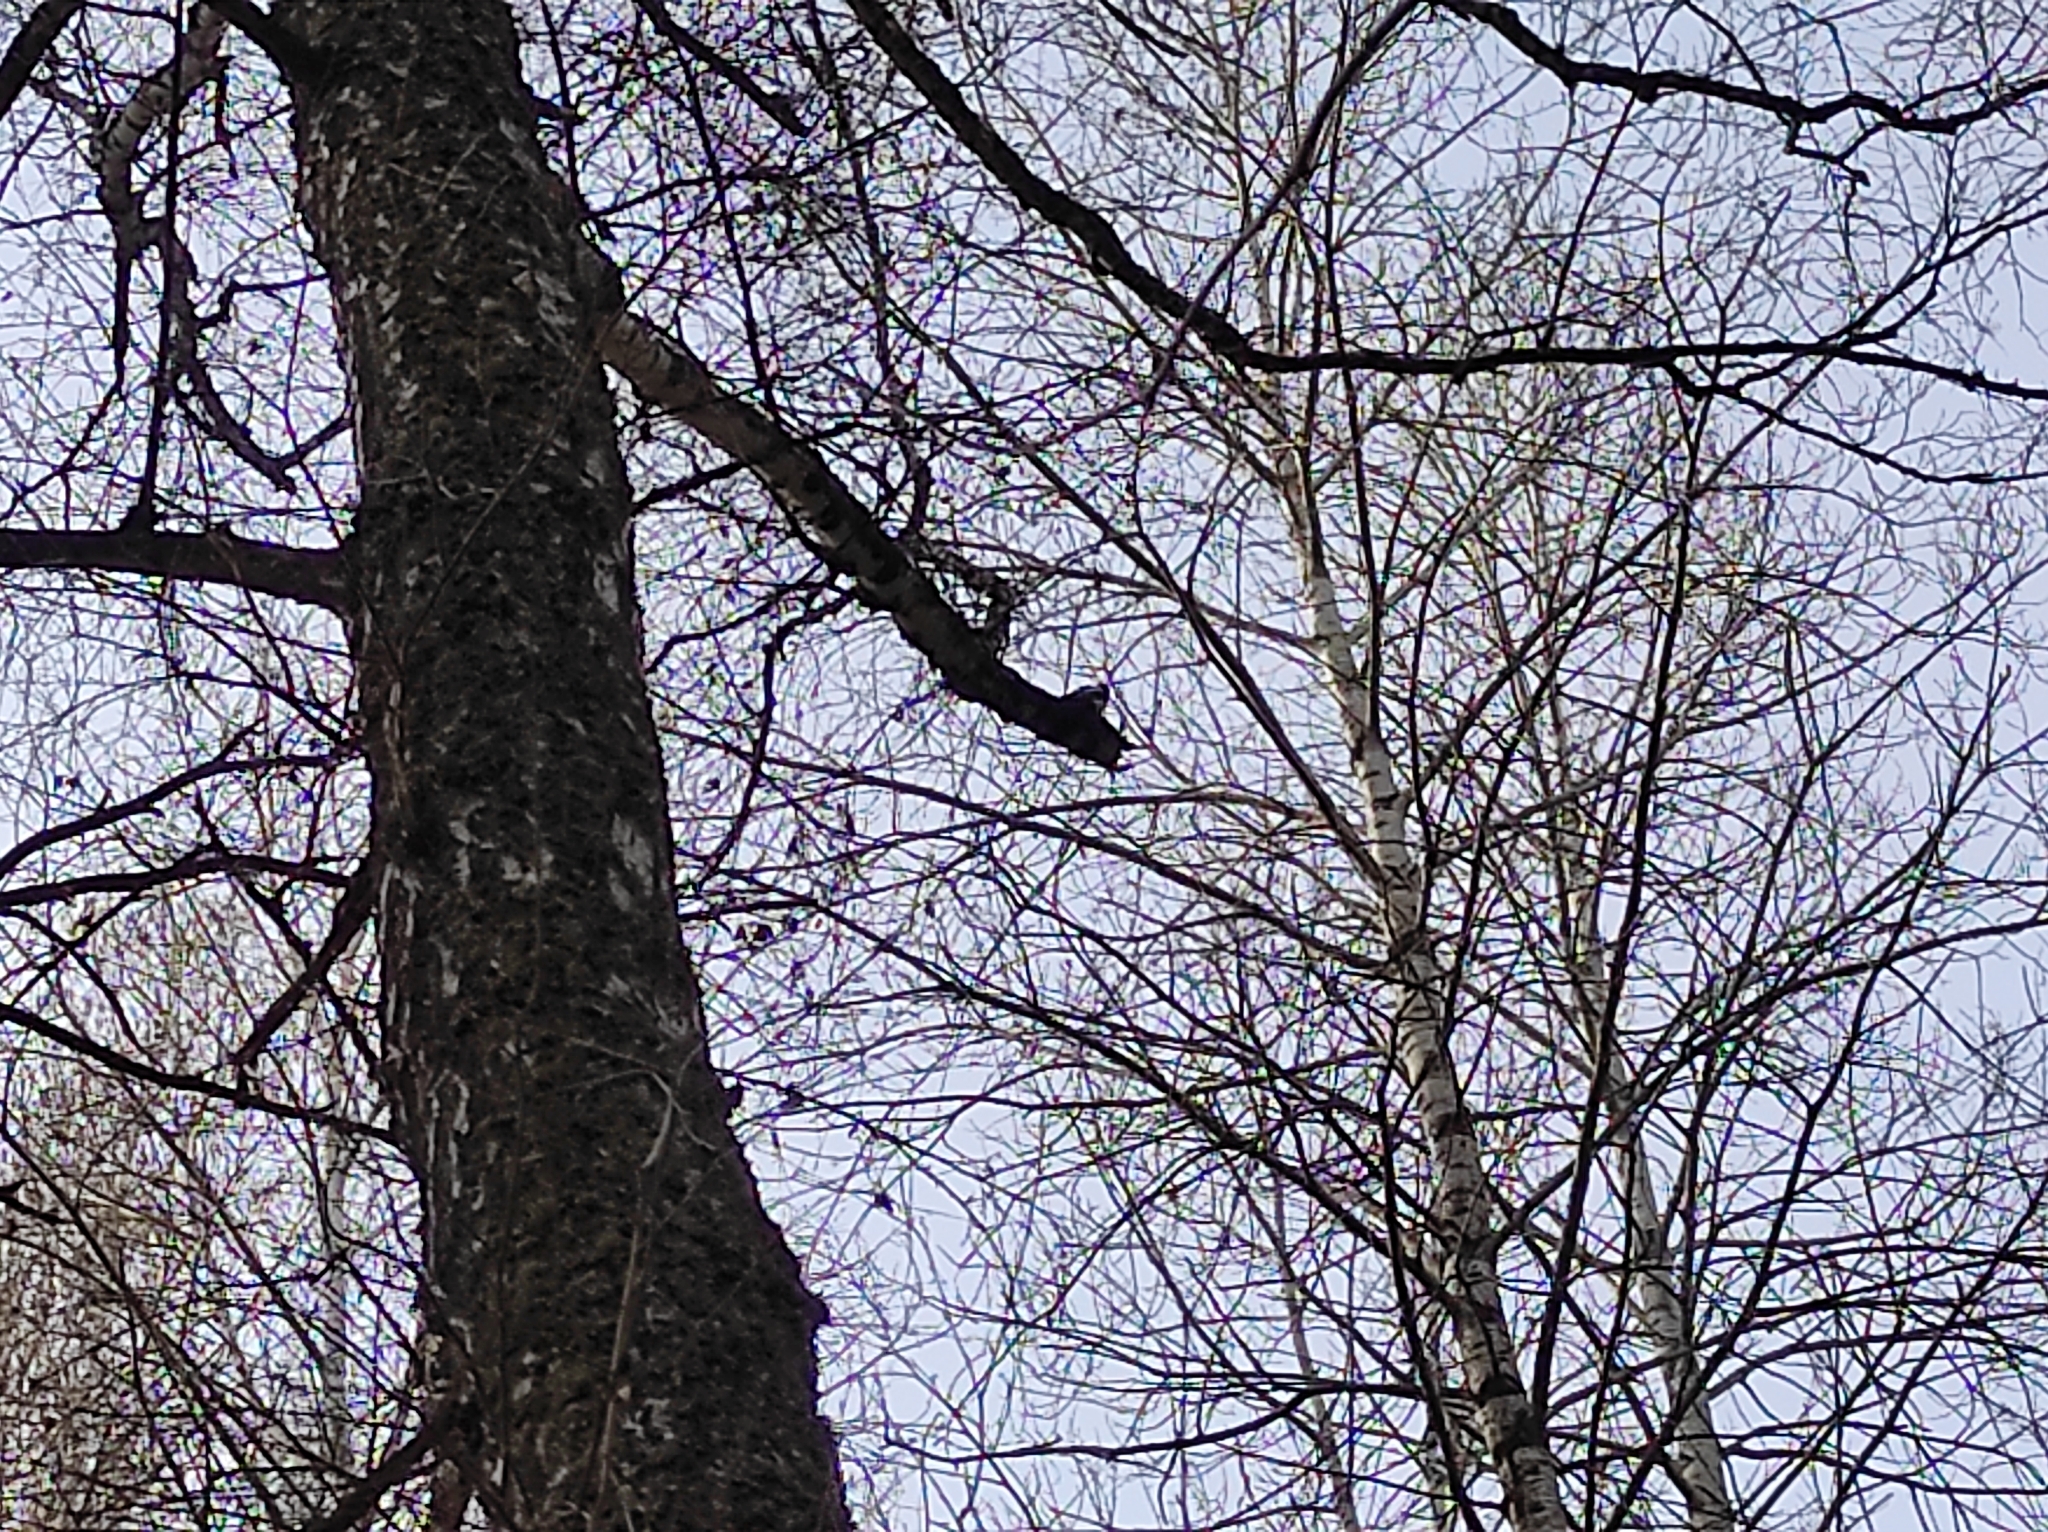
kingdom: Animalia
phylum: Chordata
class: Aves
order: Piciformes
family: Picidae
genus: Dendrocopos
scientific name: Dendrocopos major
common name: Great spotted woodpecker
